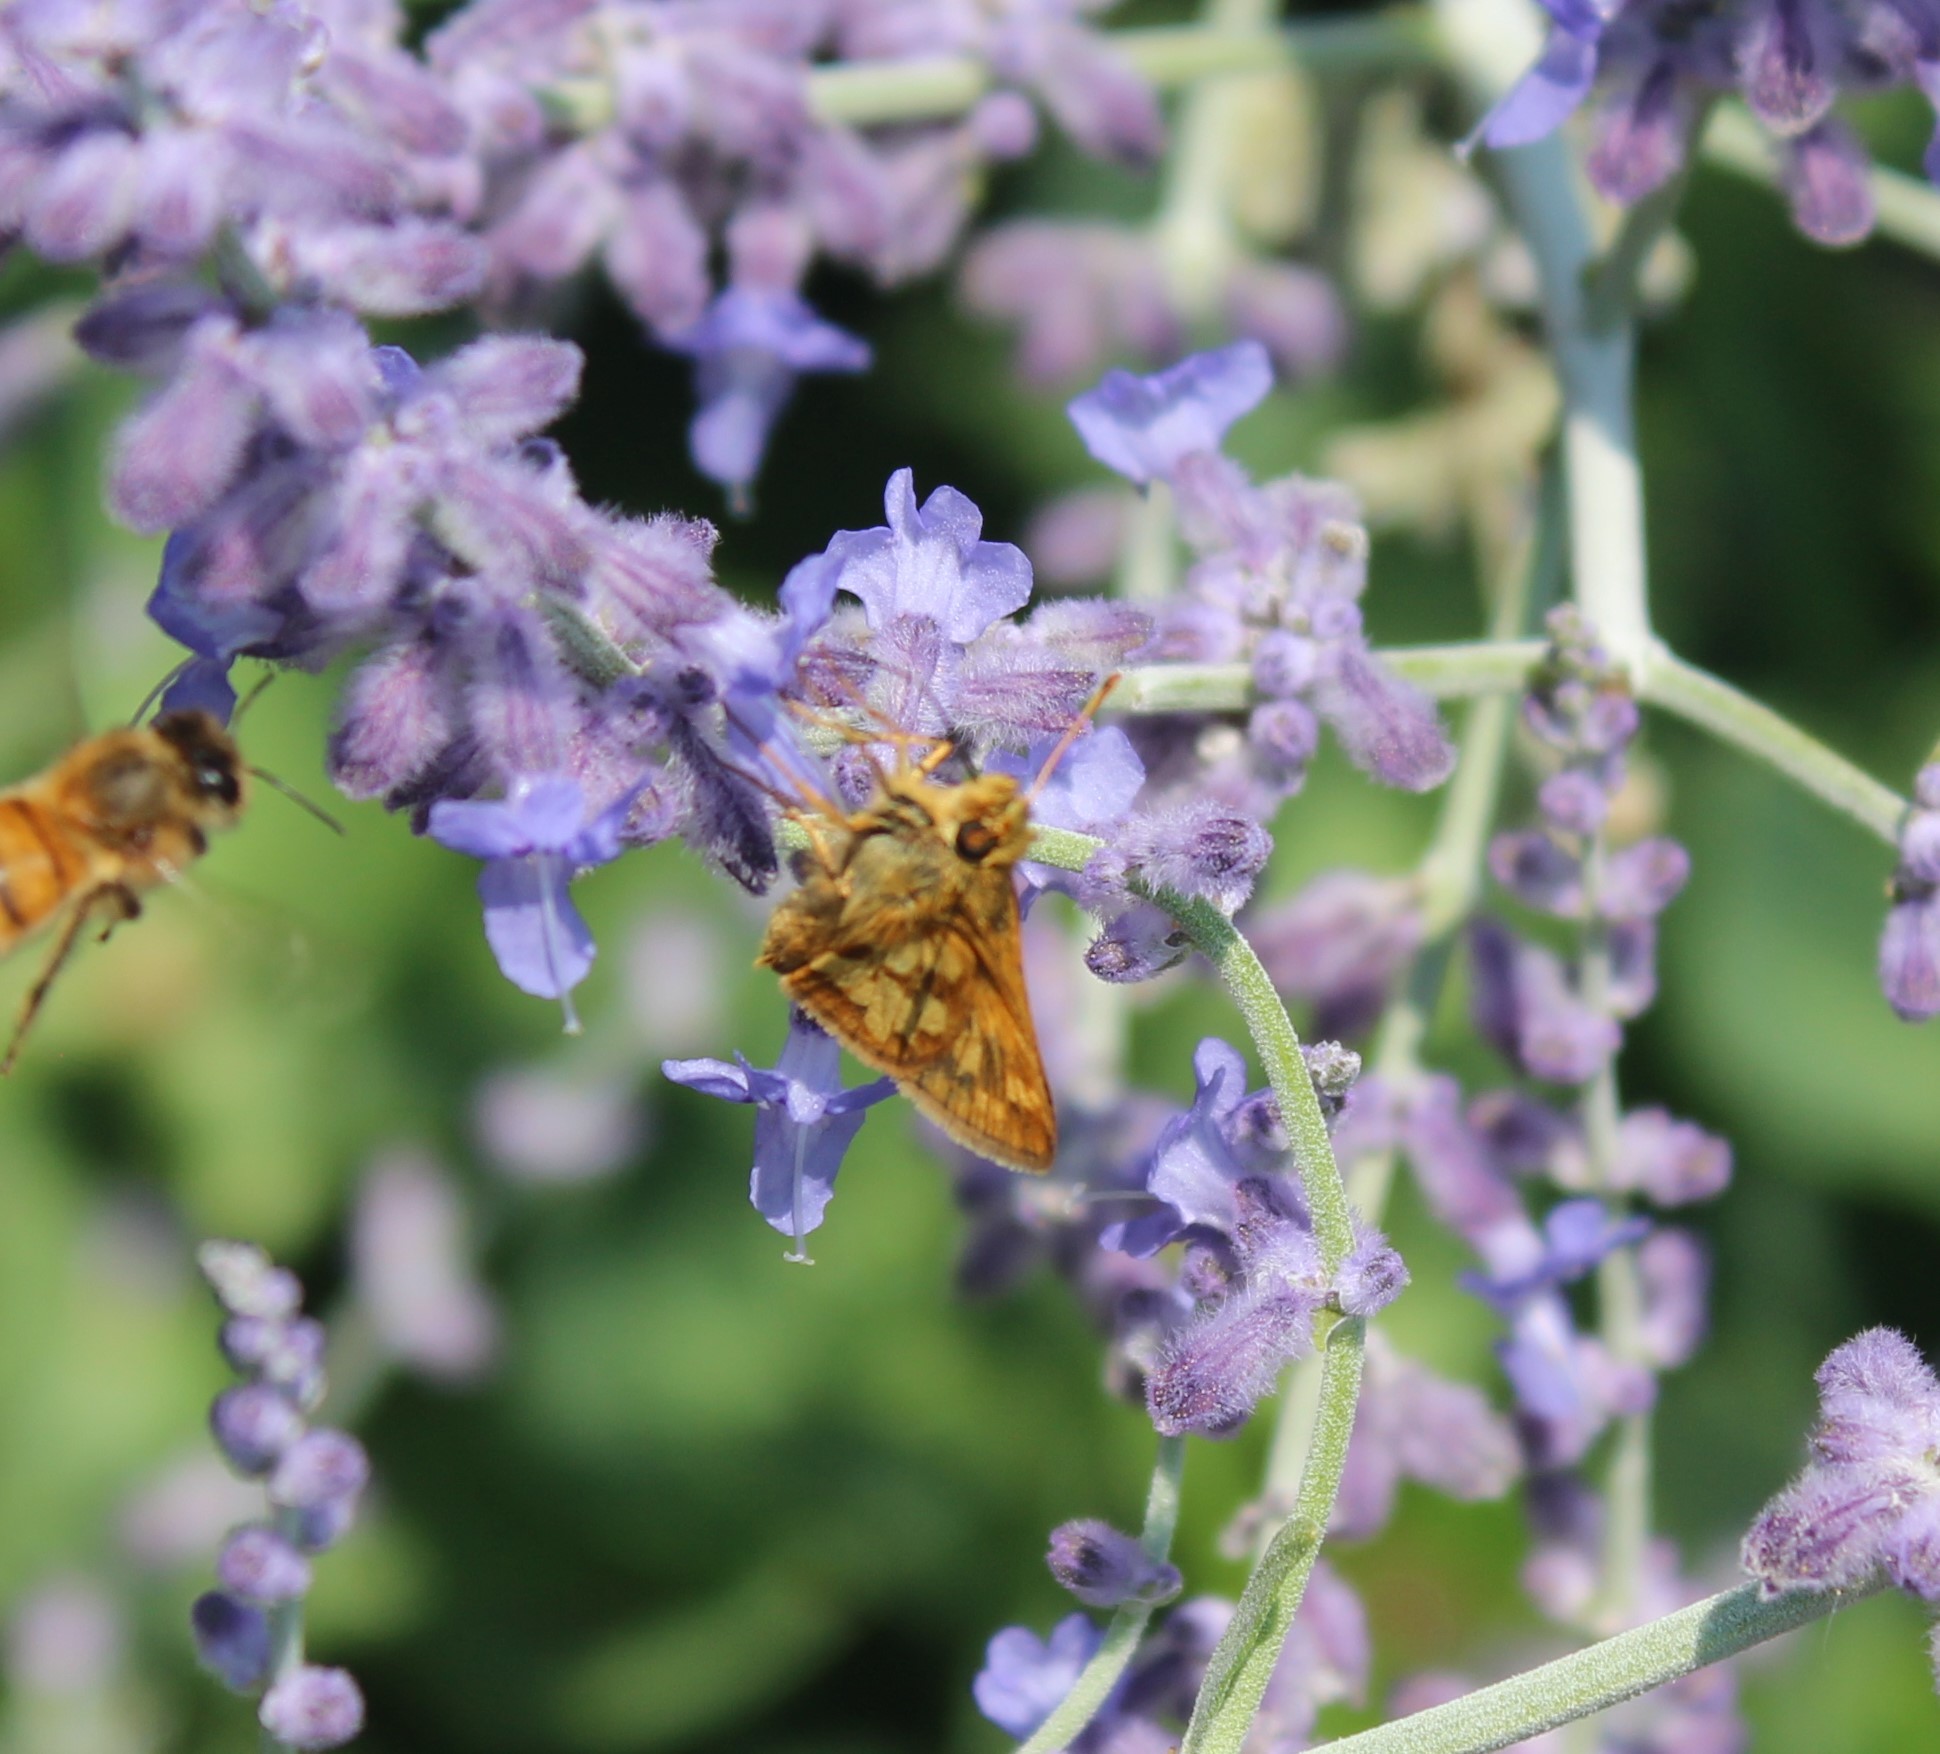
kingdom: Animalia
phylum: Arthropoda
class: Insecta
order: Lepidoptera
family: Hesperiidae
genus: Polites
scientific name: Polites coras
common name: Peck's skipper
